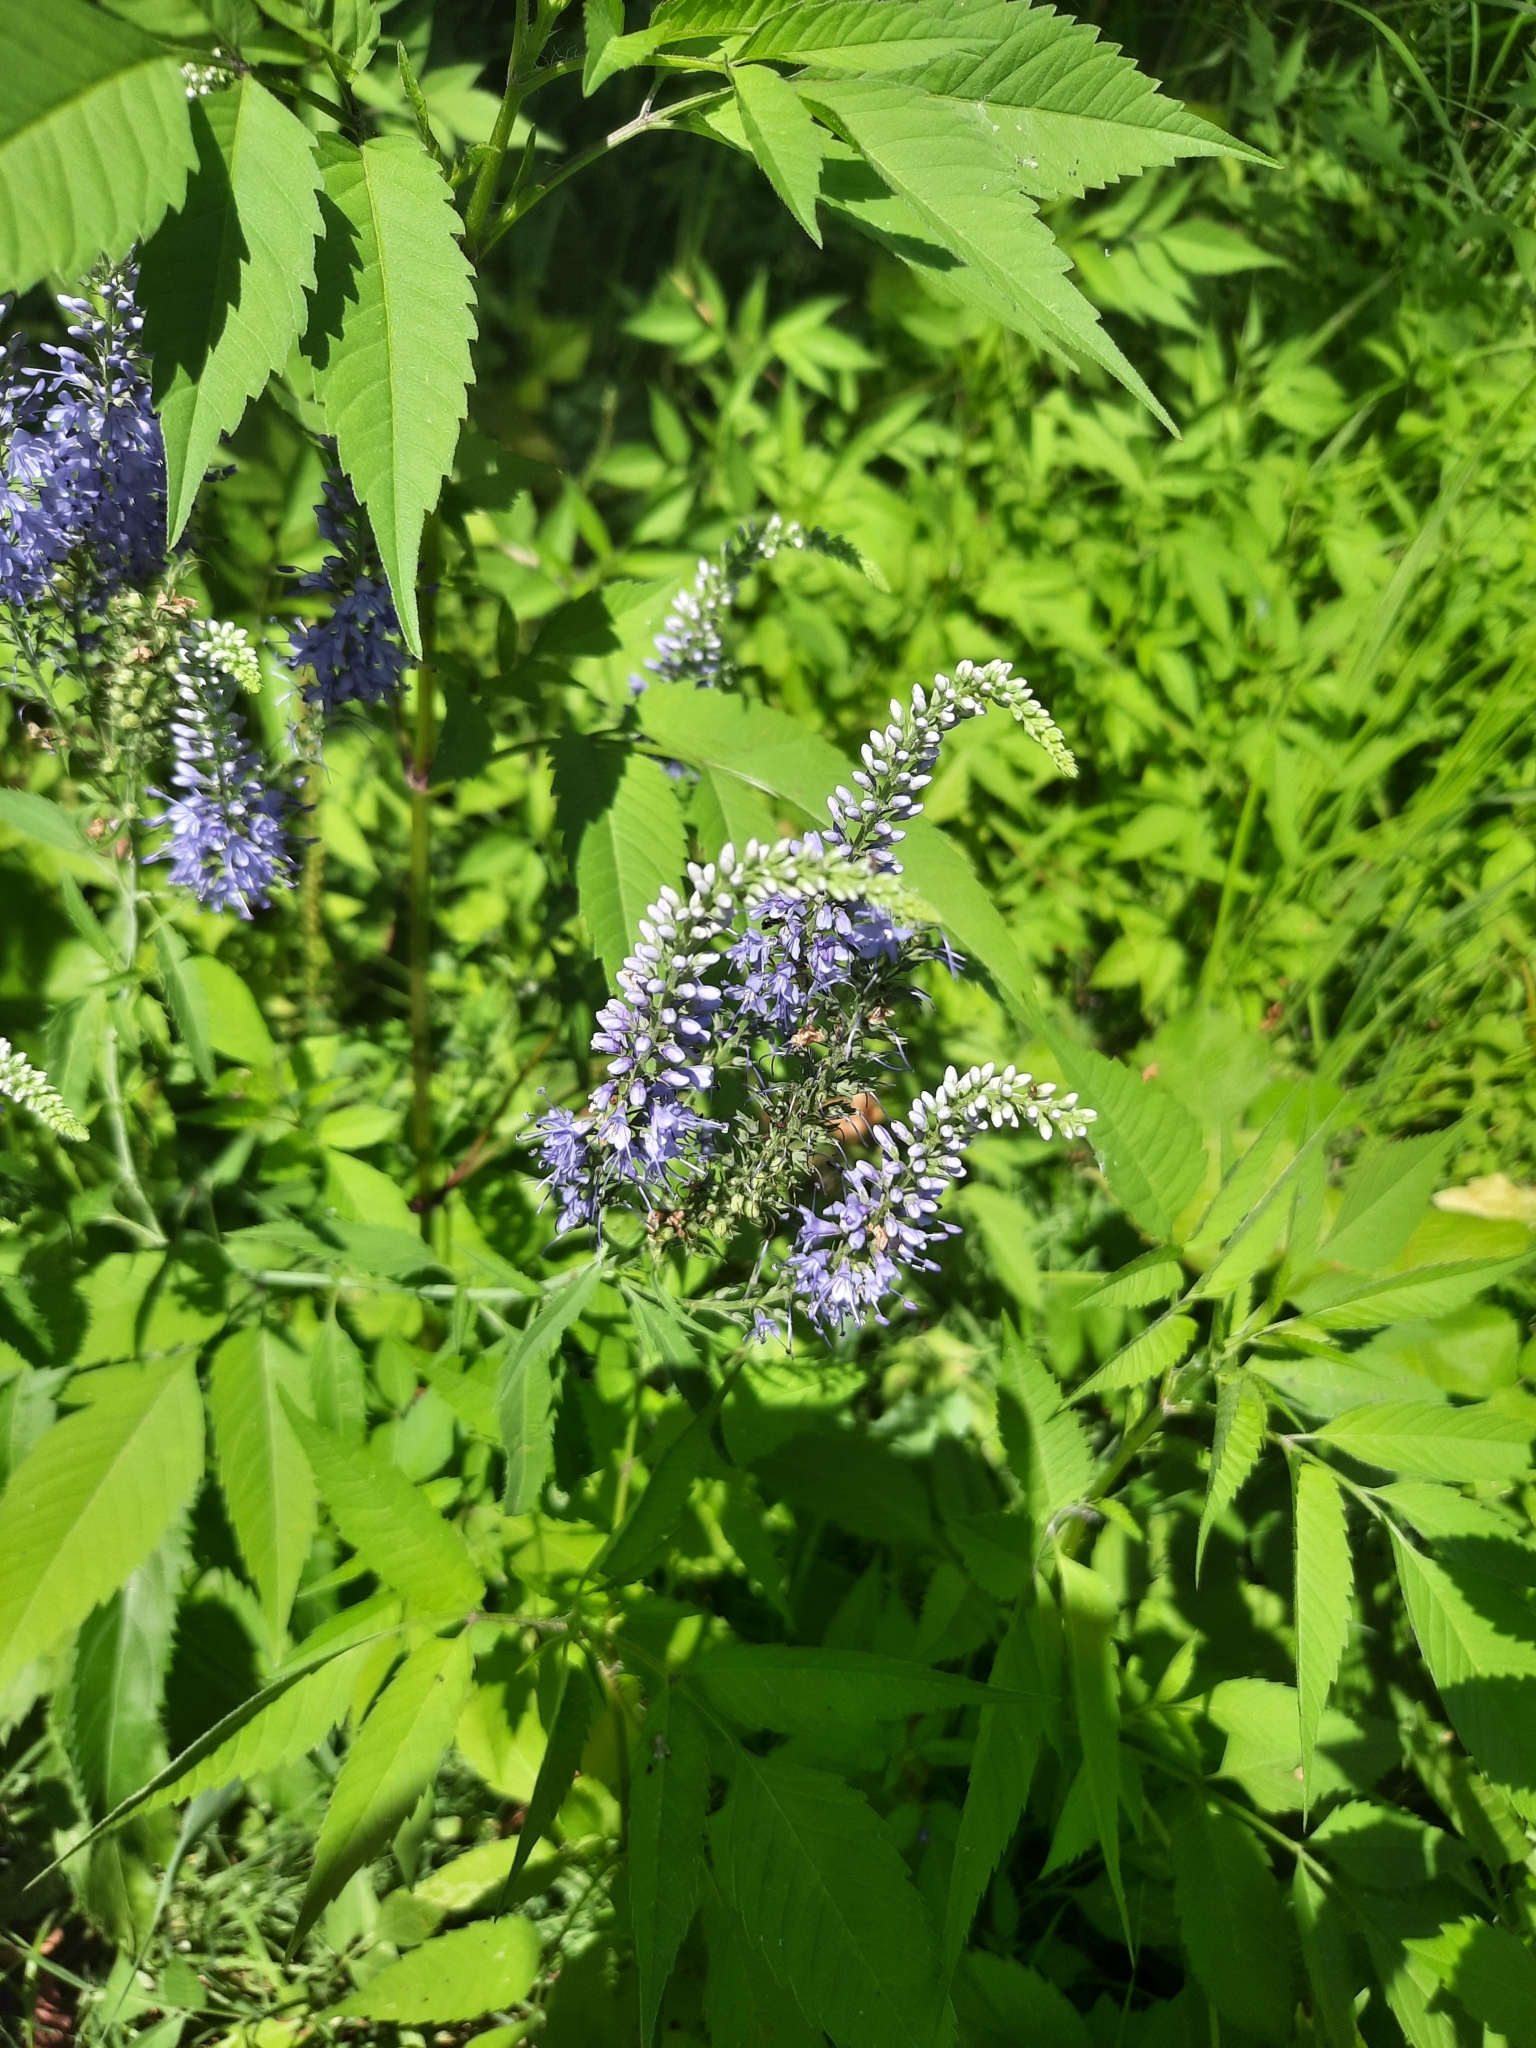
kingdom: Plantae
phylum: Tracheophyta
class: Magnoliopsida
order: Lamiales
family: Plantaginaceae
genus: Veronica
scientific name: Veronica longifolia
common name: Garden speedwell
